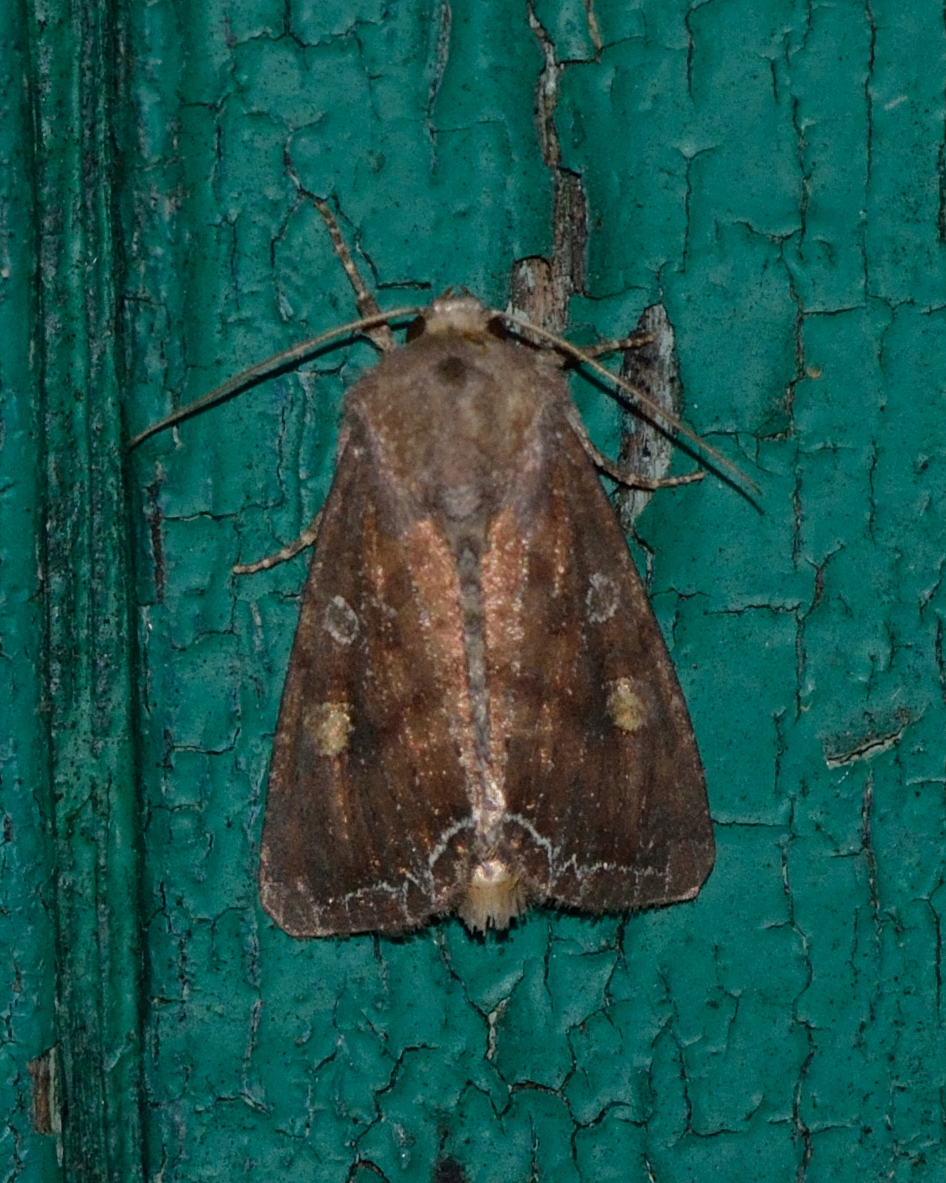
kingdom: Animalia
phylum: Arthropoda
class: Insecta
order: Lepidoptera
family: Noctuidae
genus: Lacanobia
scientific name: Lacanobia oleracea
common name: Bright-line brown-eye
